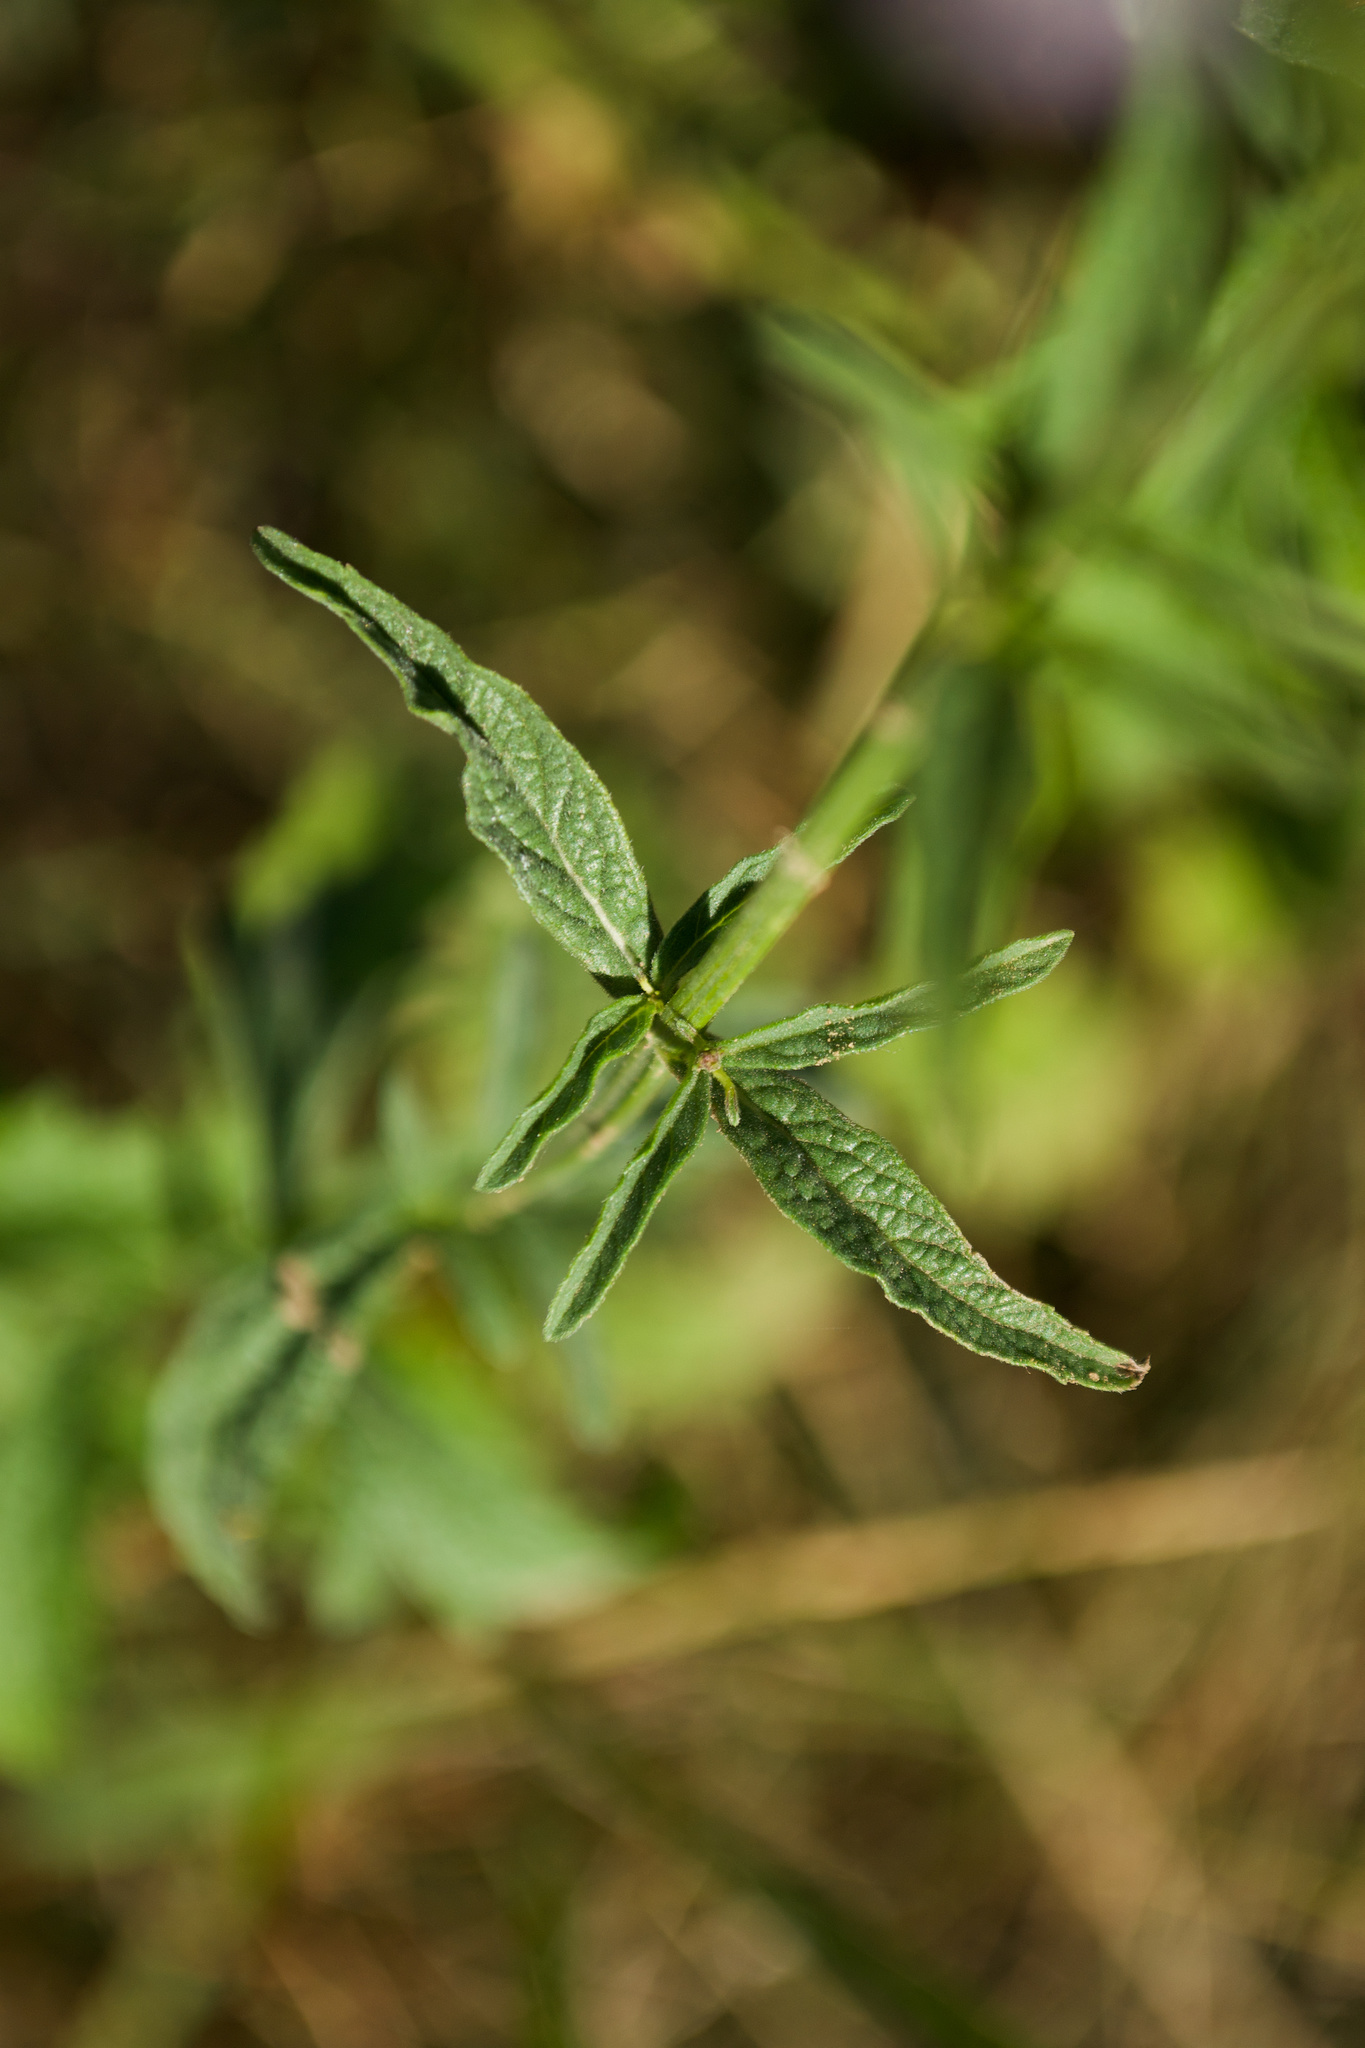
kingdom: Plantae
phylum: Tracheophyta
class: Magnoliopsida
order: Lamiales
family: Verbenaceae
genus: Verbena
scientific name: Verbena officinalis
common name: Vervain
